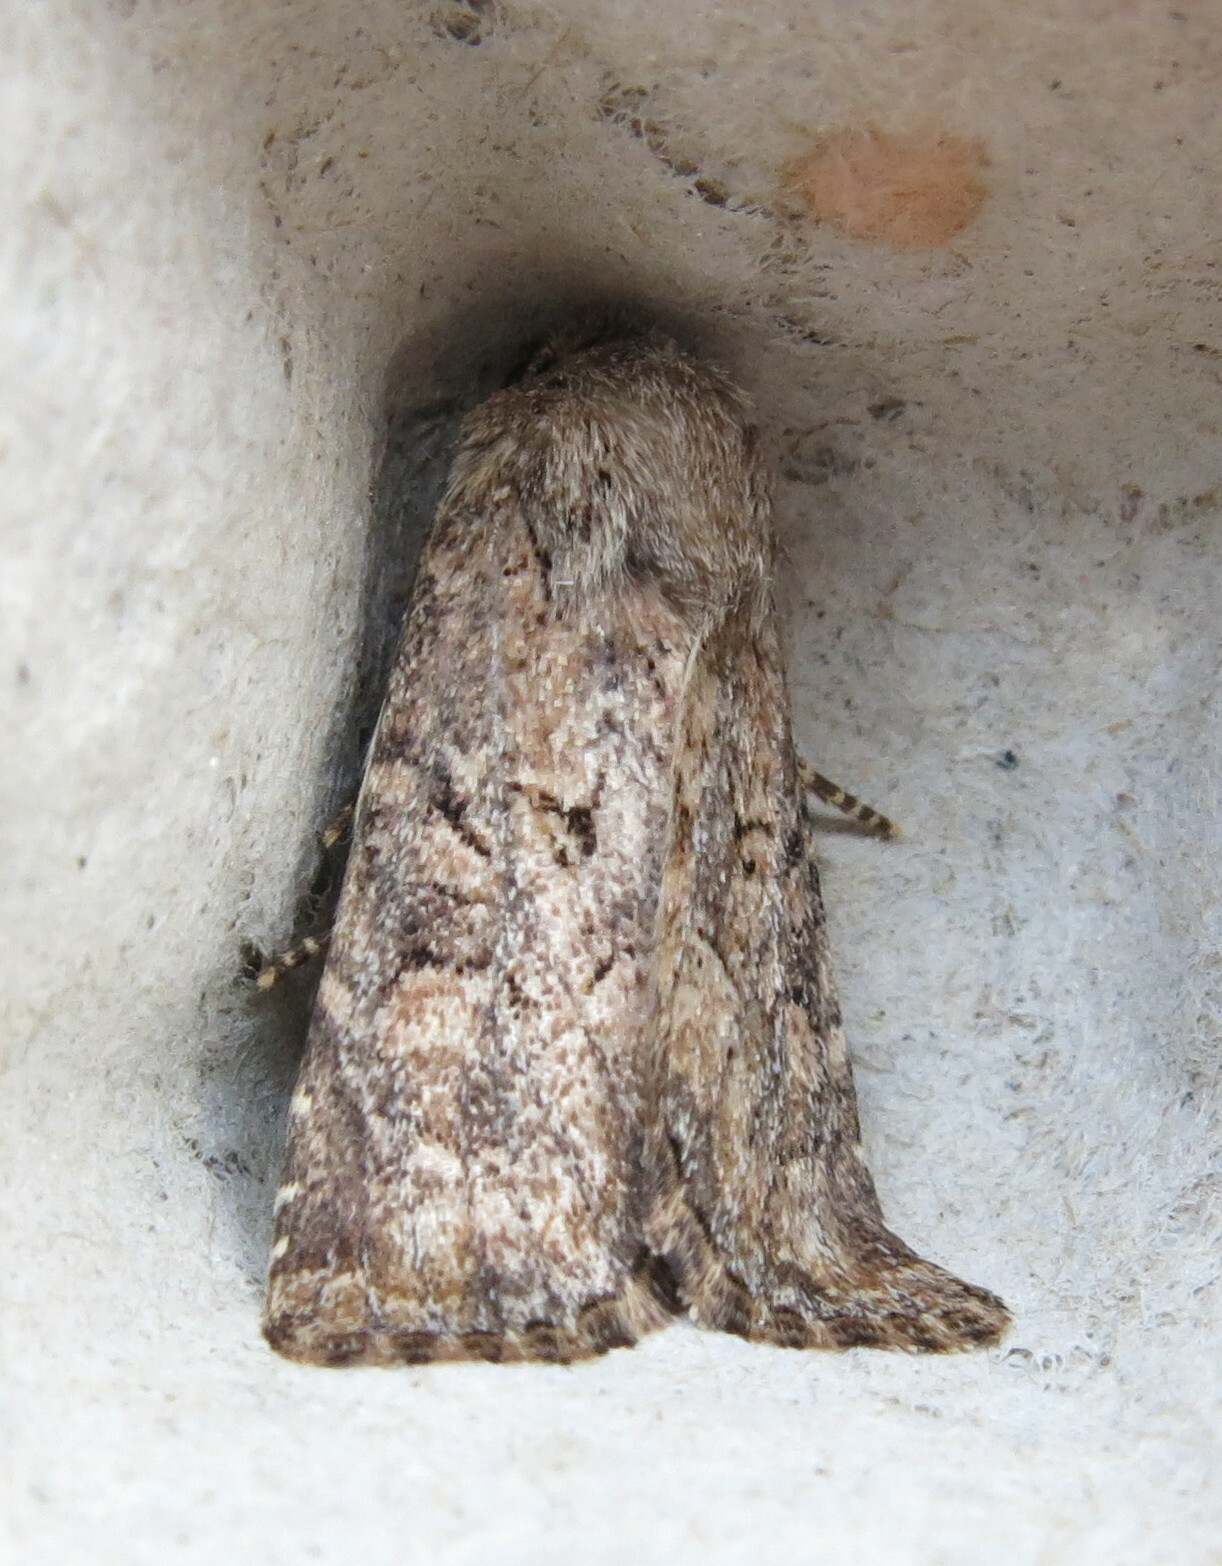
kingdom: Animalia
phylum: Arthropoda
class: Insecta
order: Lepidoptera
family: Noctuidae
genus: Luperina
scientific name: Luperina testacea
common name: Flounced rustic
